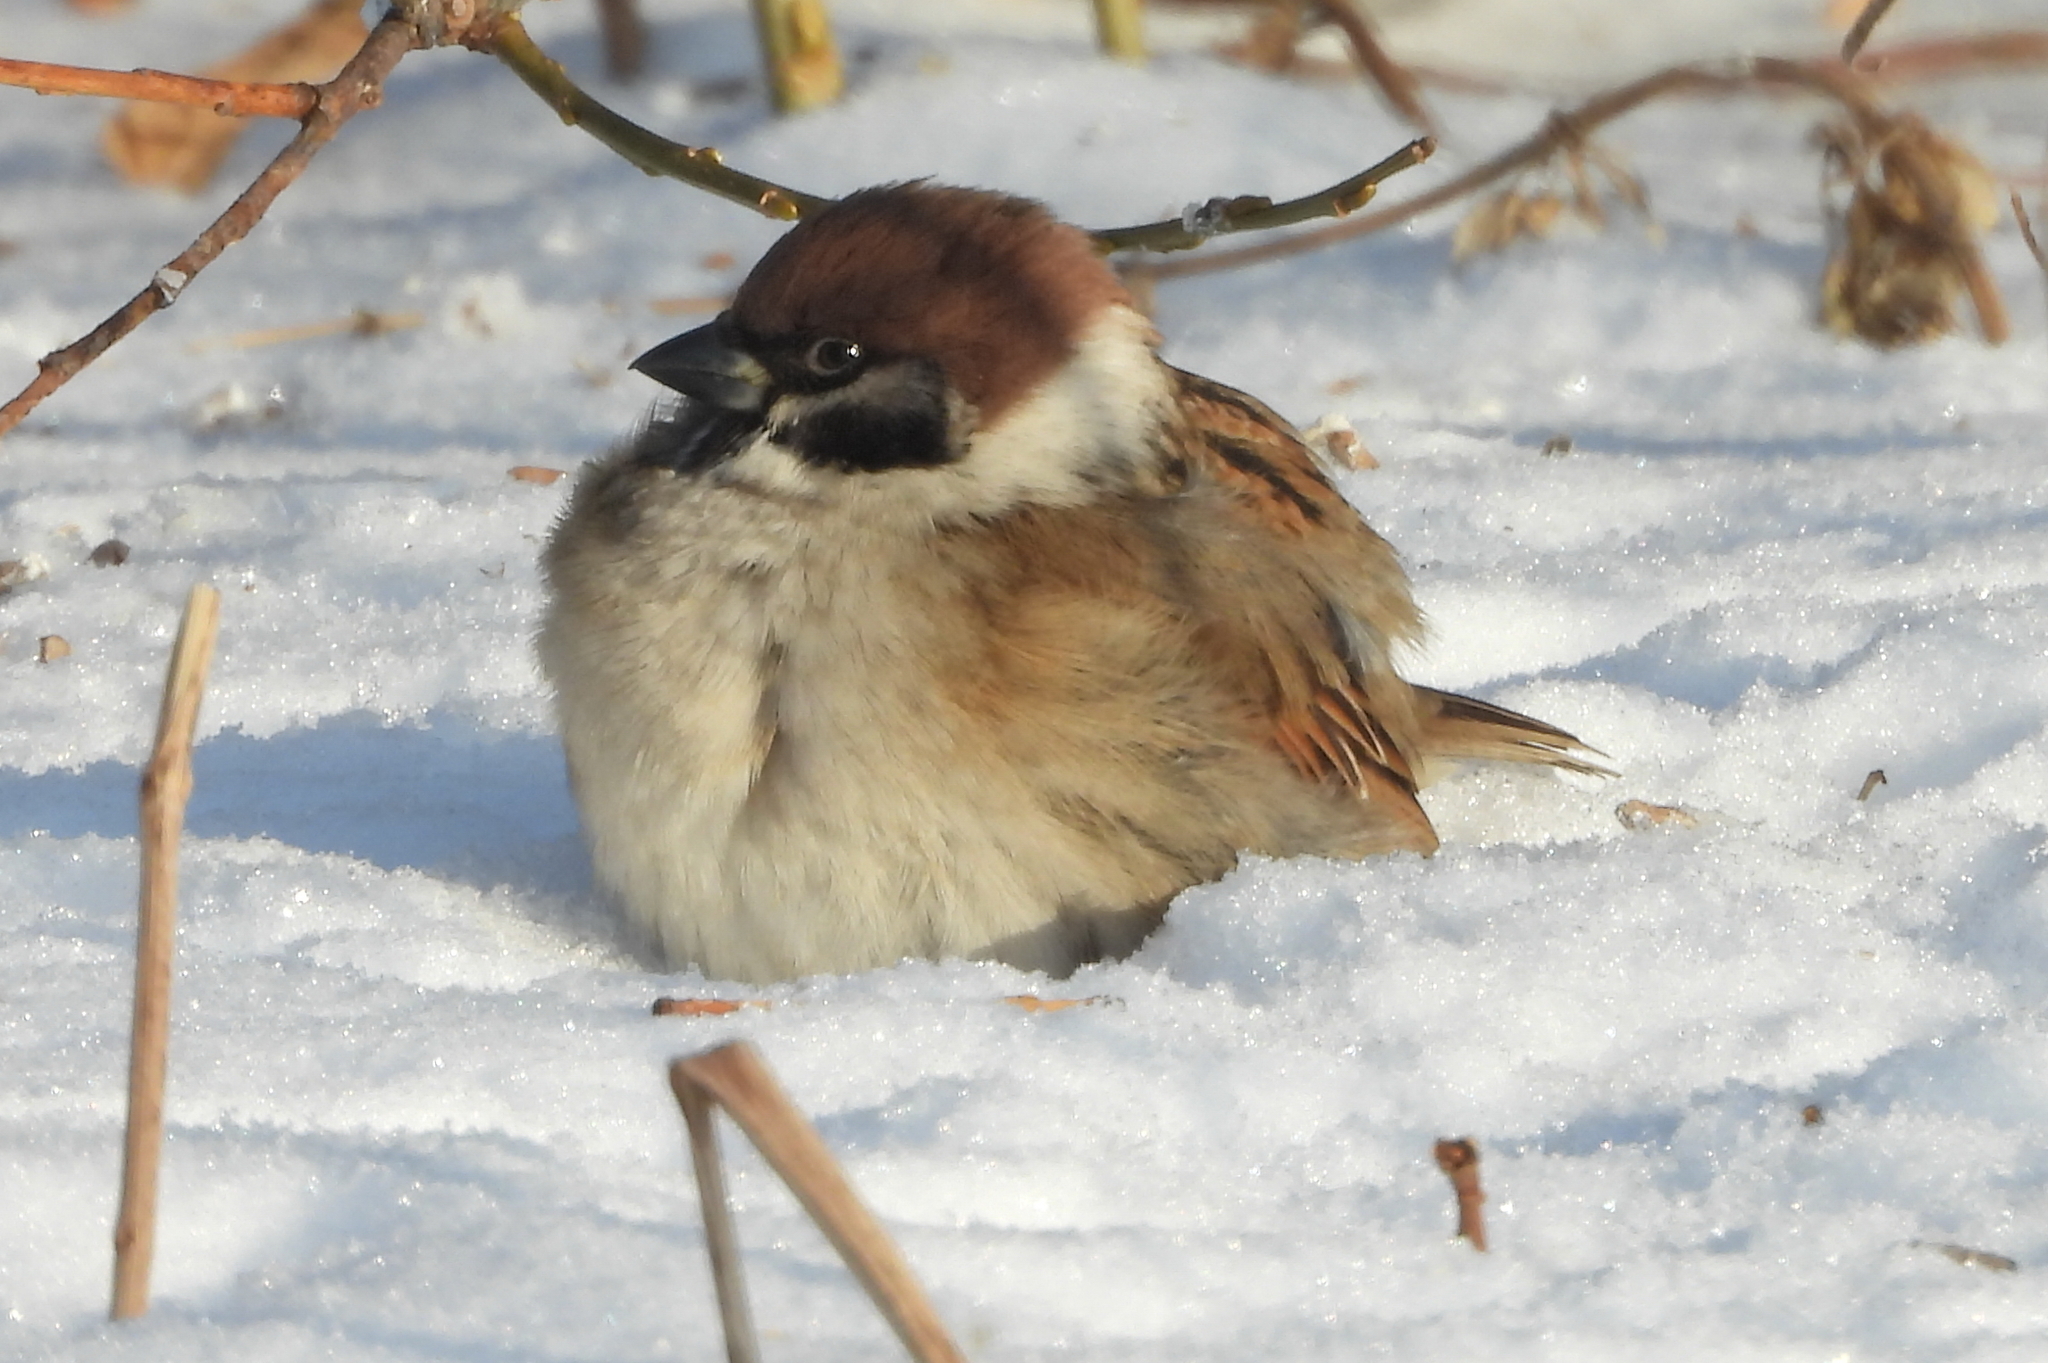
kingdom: Animalia
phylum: Chordata
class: Aves
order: Passeriformes
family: Passeridae
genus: Passer
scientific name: Passer montanus
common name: Eurasian tree sparrow
